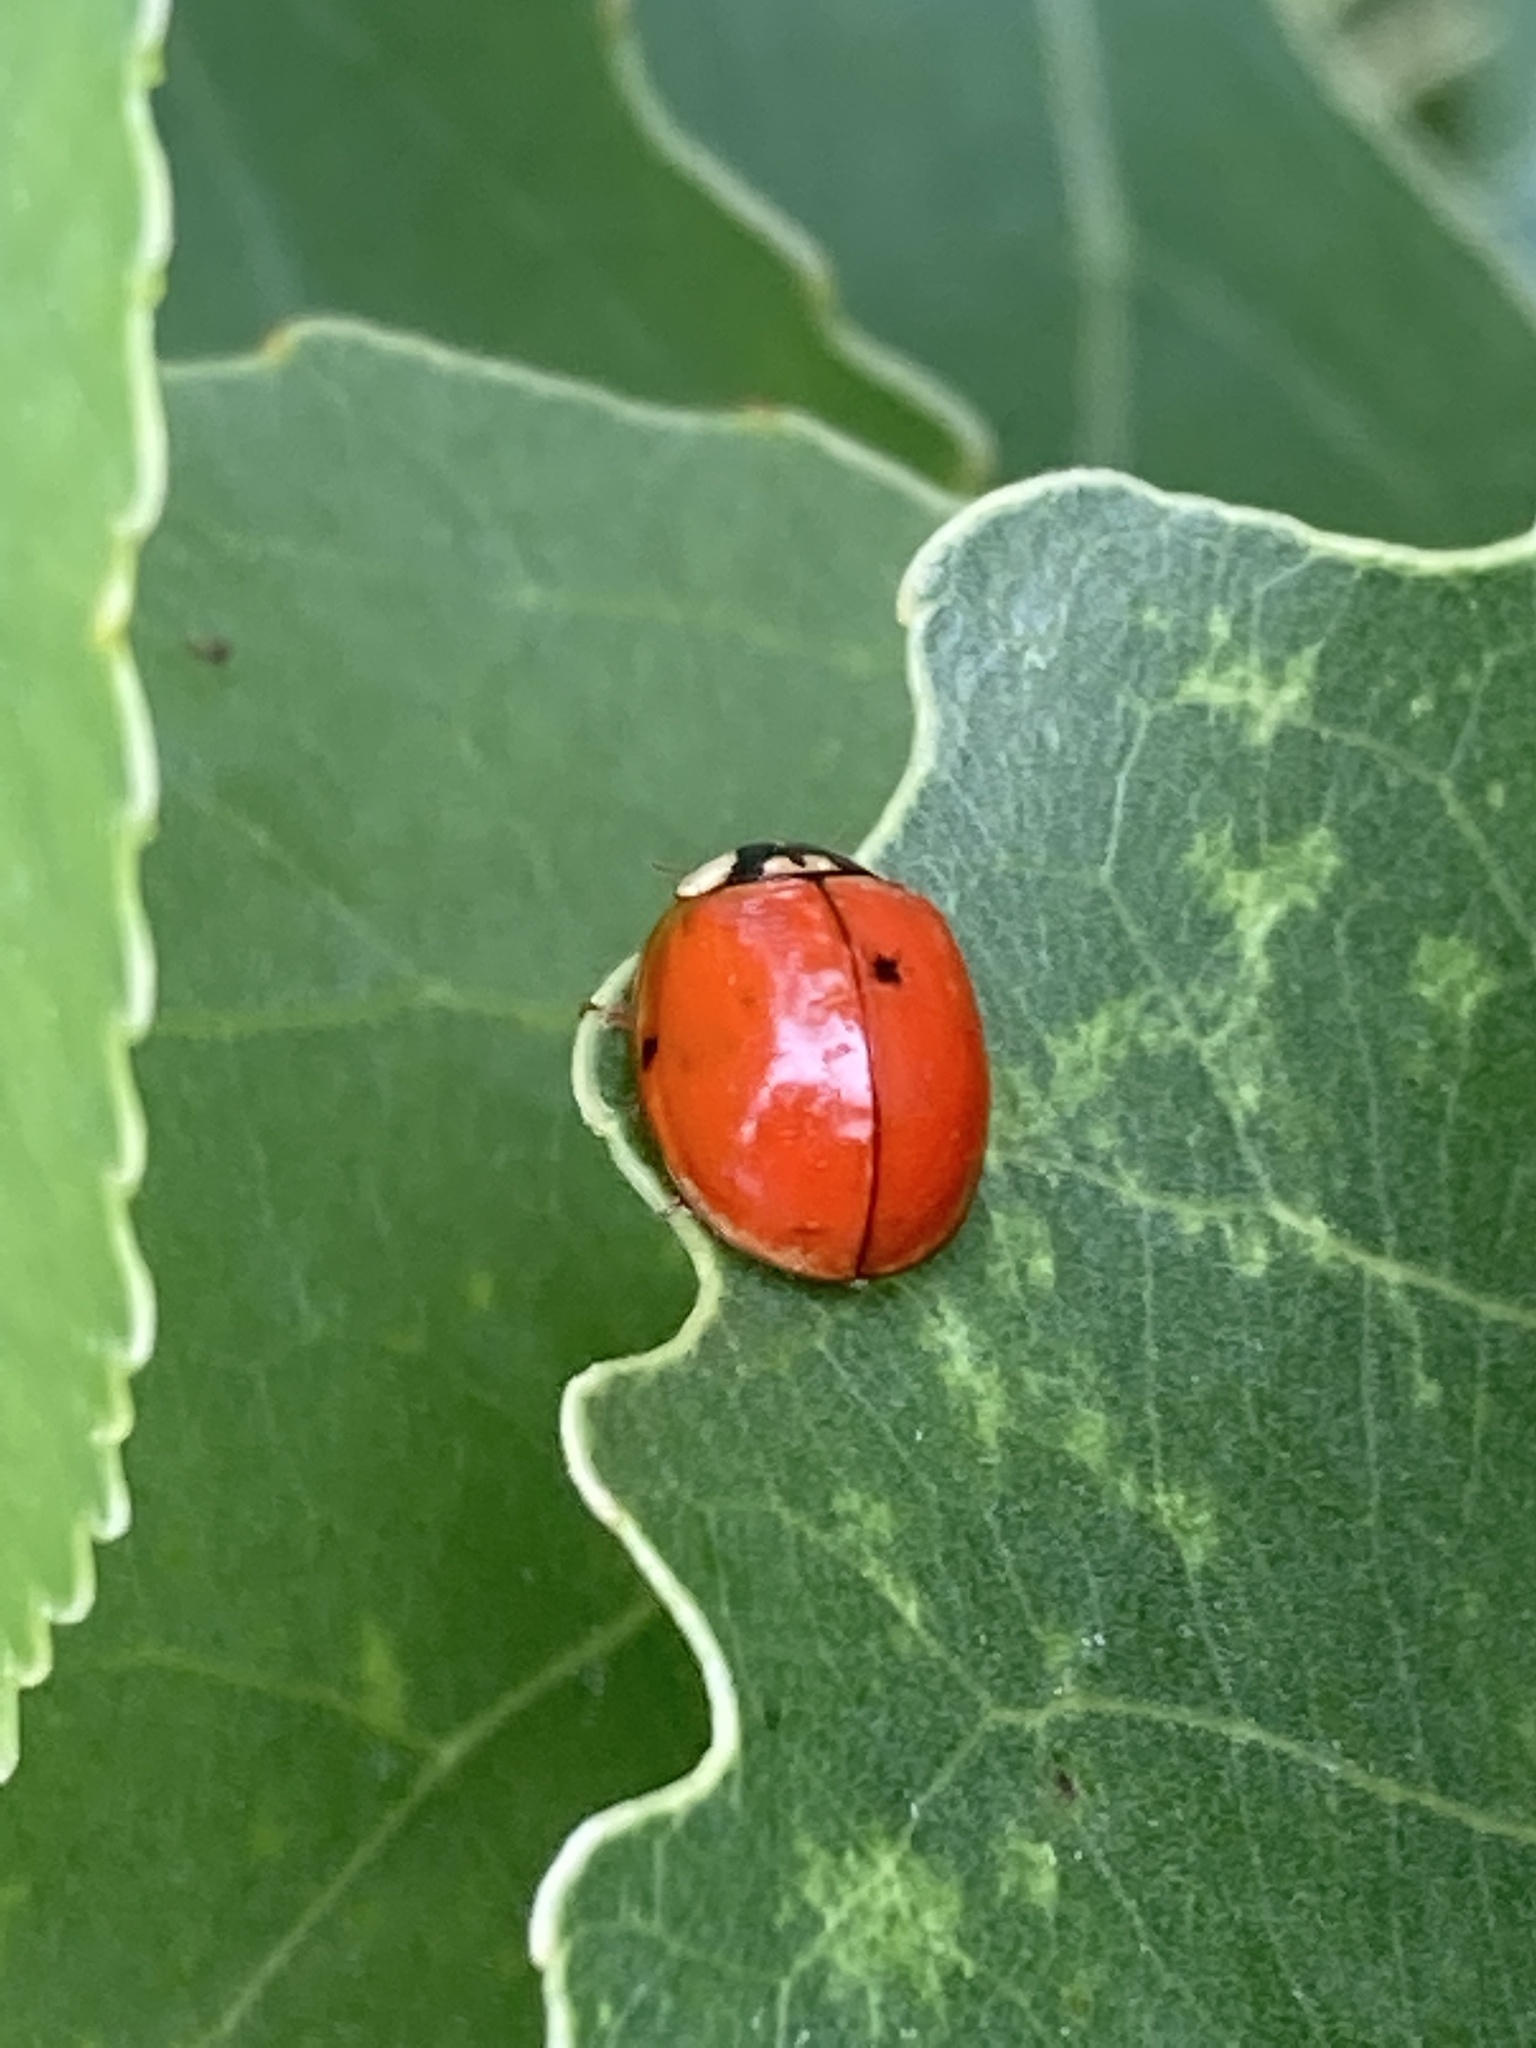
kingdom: Animalia
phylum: Arthropoda
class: Insecta
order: Coleoptera
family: Coccinellidae
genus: Harmonia
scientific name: Harmonia axyridis
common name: Harlequin ladybird
